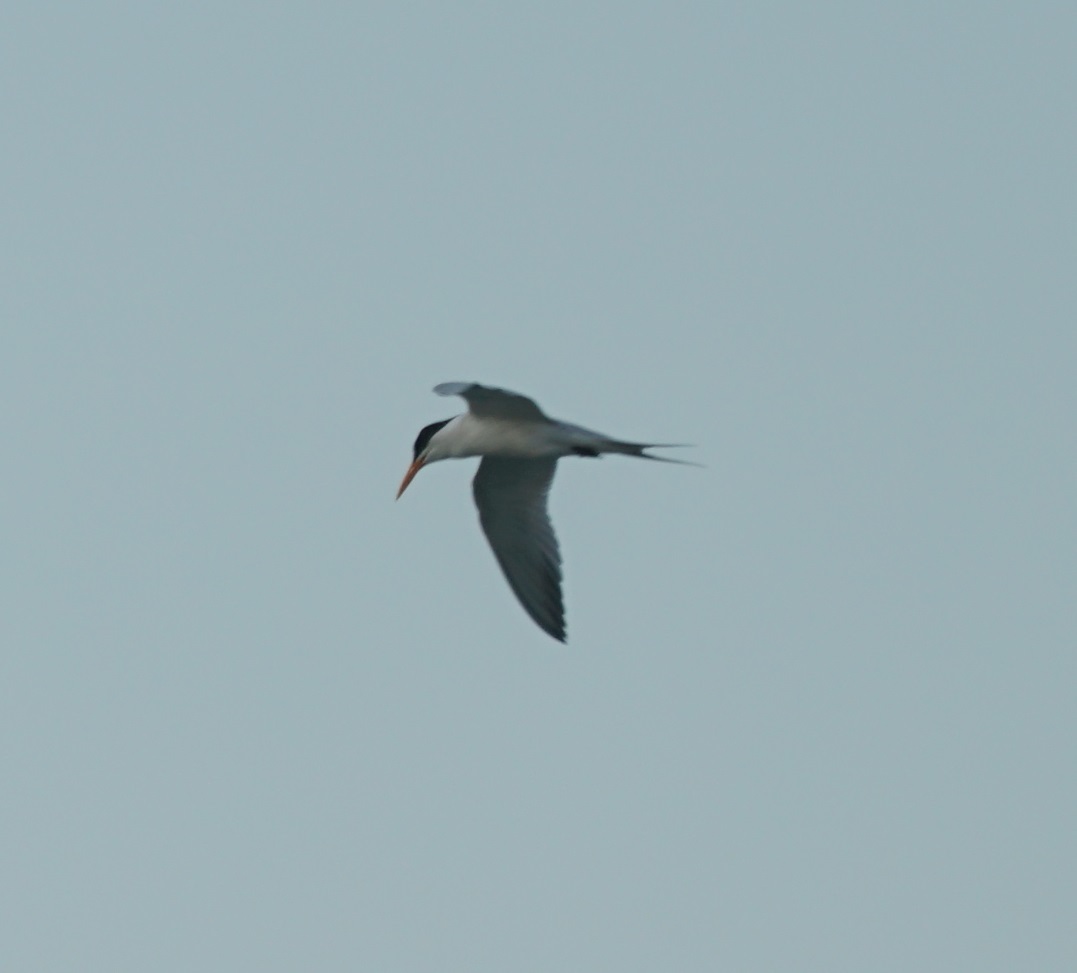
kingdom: Animalia
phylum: Chordata
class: Aves
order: Charadriiformes
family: Laridae
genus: Thalasseus
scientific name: Thalasseus bengalensis
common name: Lesser crested tern
